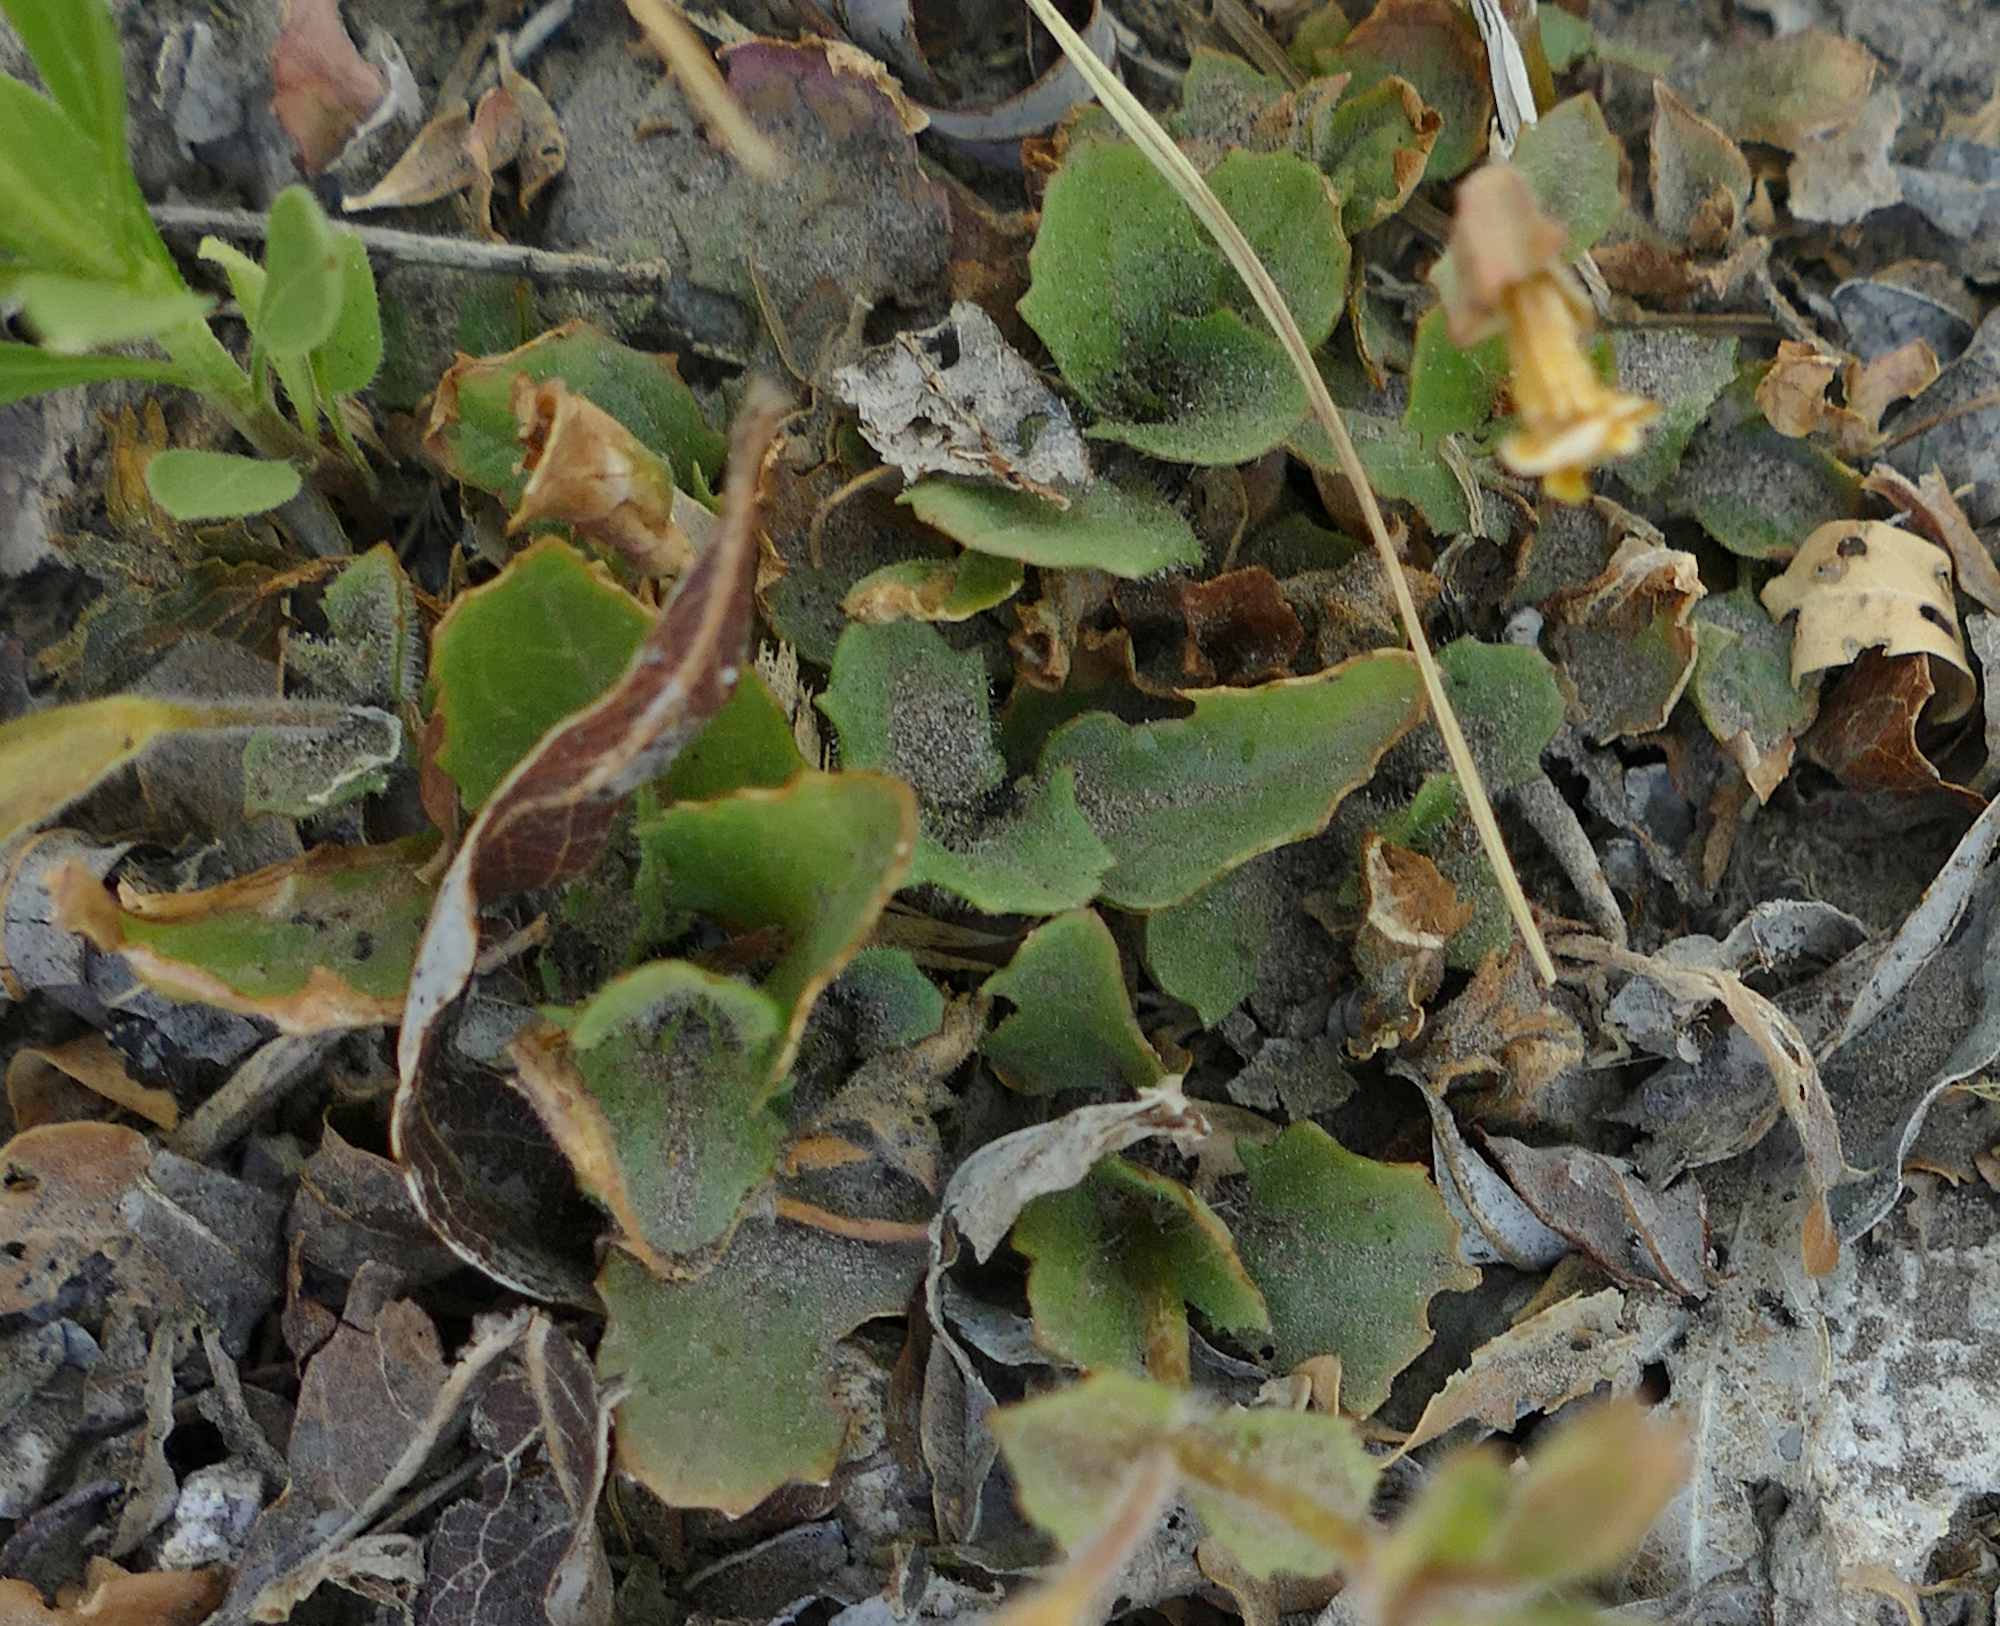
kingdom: Plantae
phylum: Tracheophyta
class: Magnoliopsida
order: Lamiales
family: Phrymaceae
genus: Erythranthe
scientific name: Erythranthe guttata
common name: Monkeyflower
